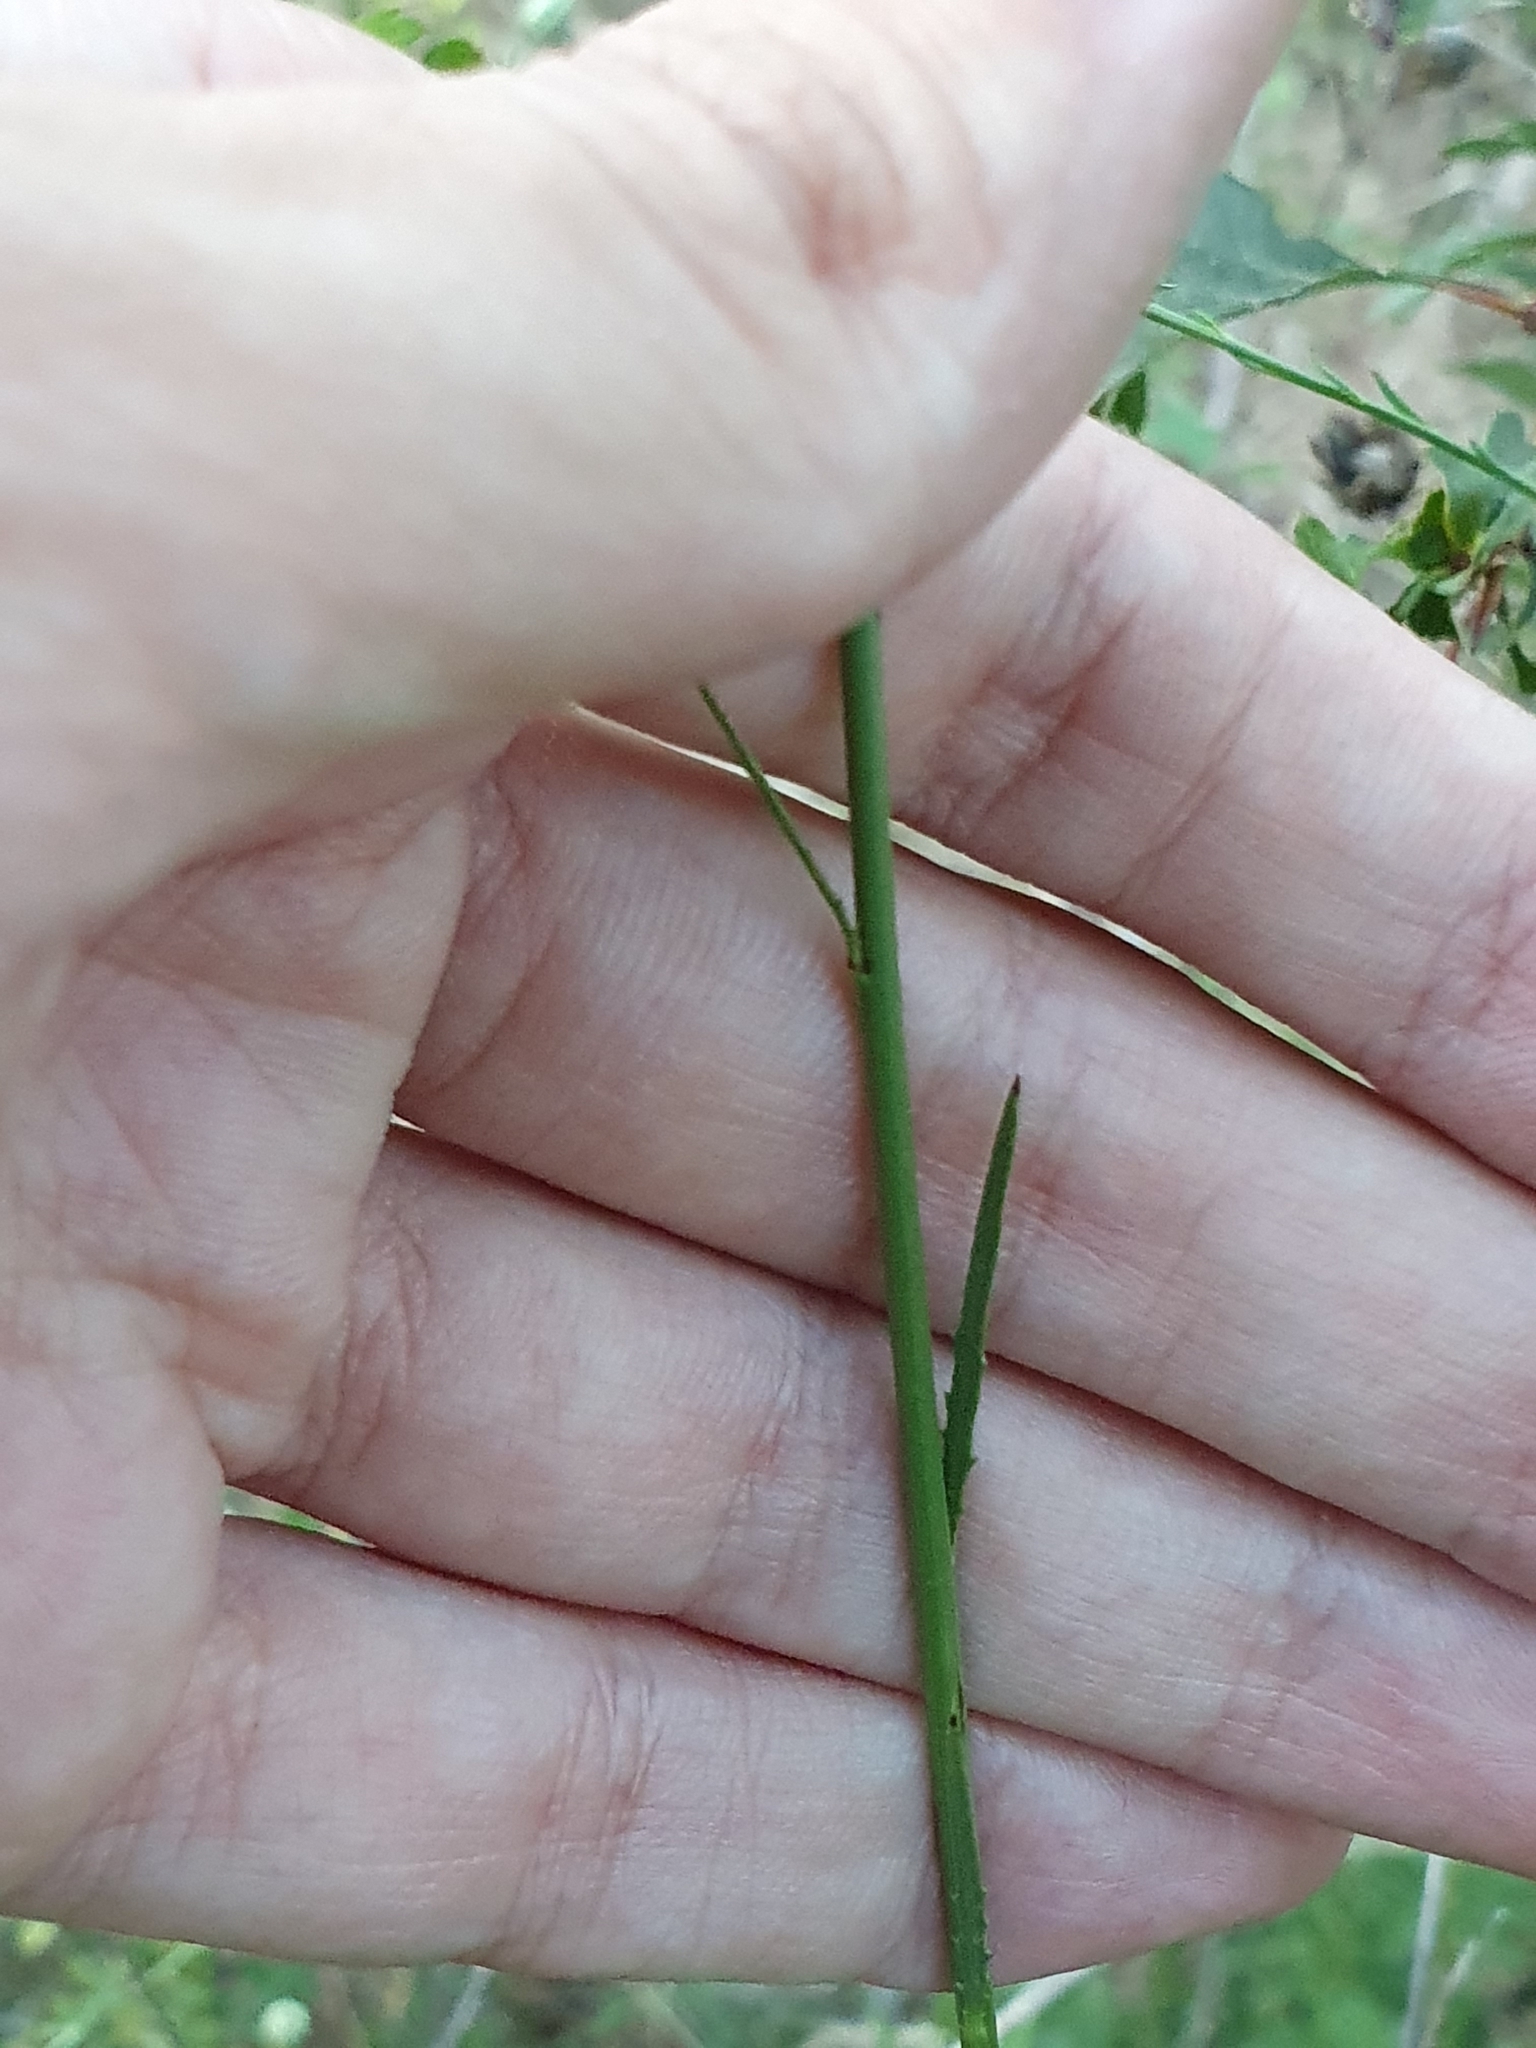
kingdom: Plantae
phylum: Tracheophyta
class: Magnoliopsida
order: Asterales
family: Asteraceae
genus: Mantisalca
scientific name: Mantisalca salmantica
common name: Dagger flower
